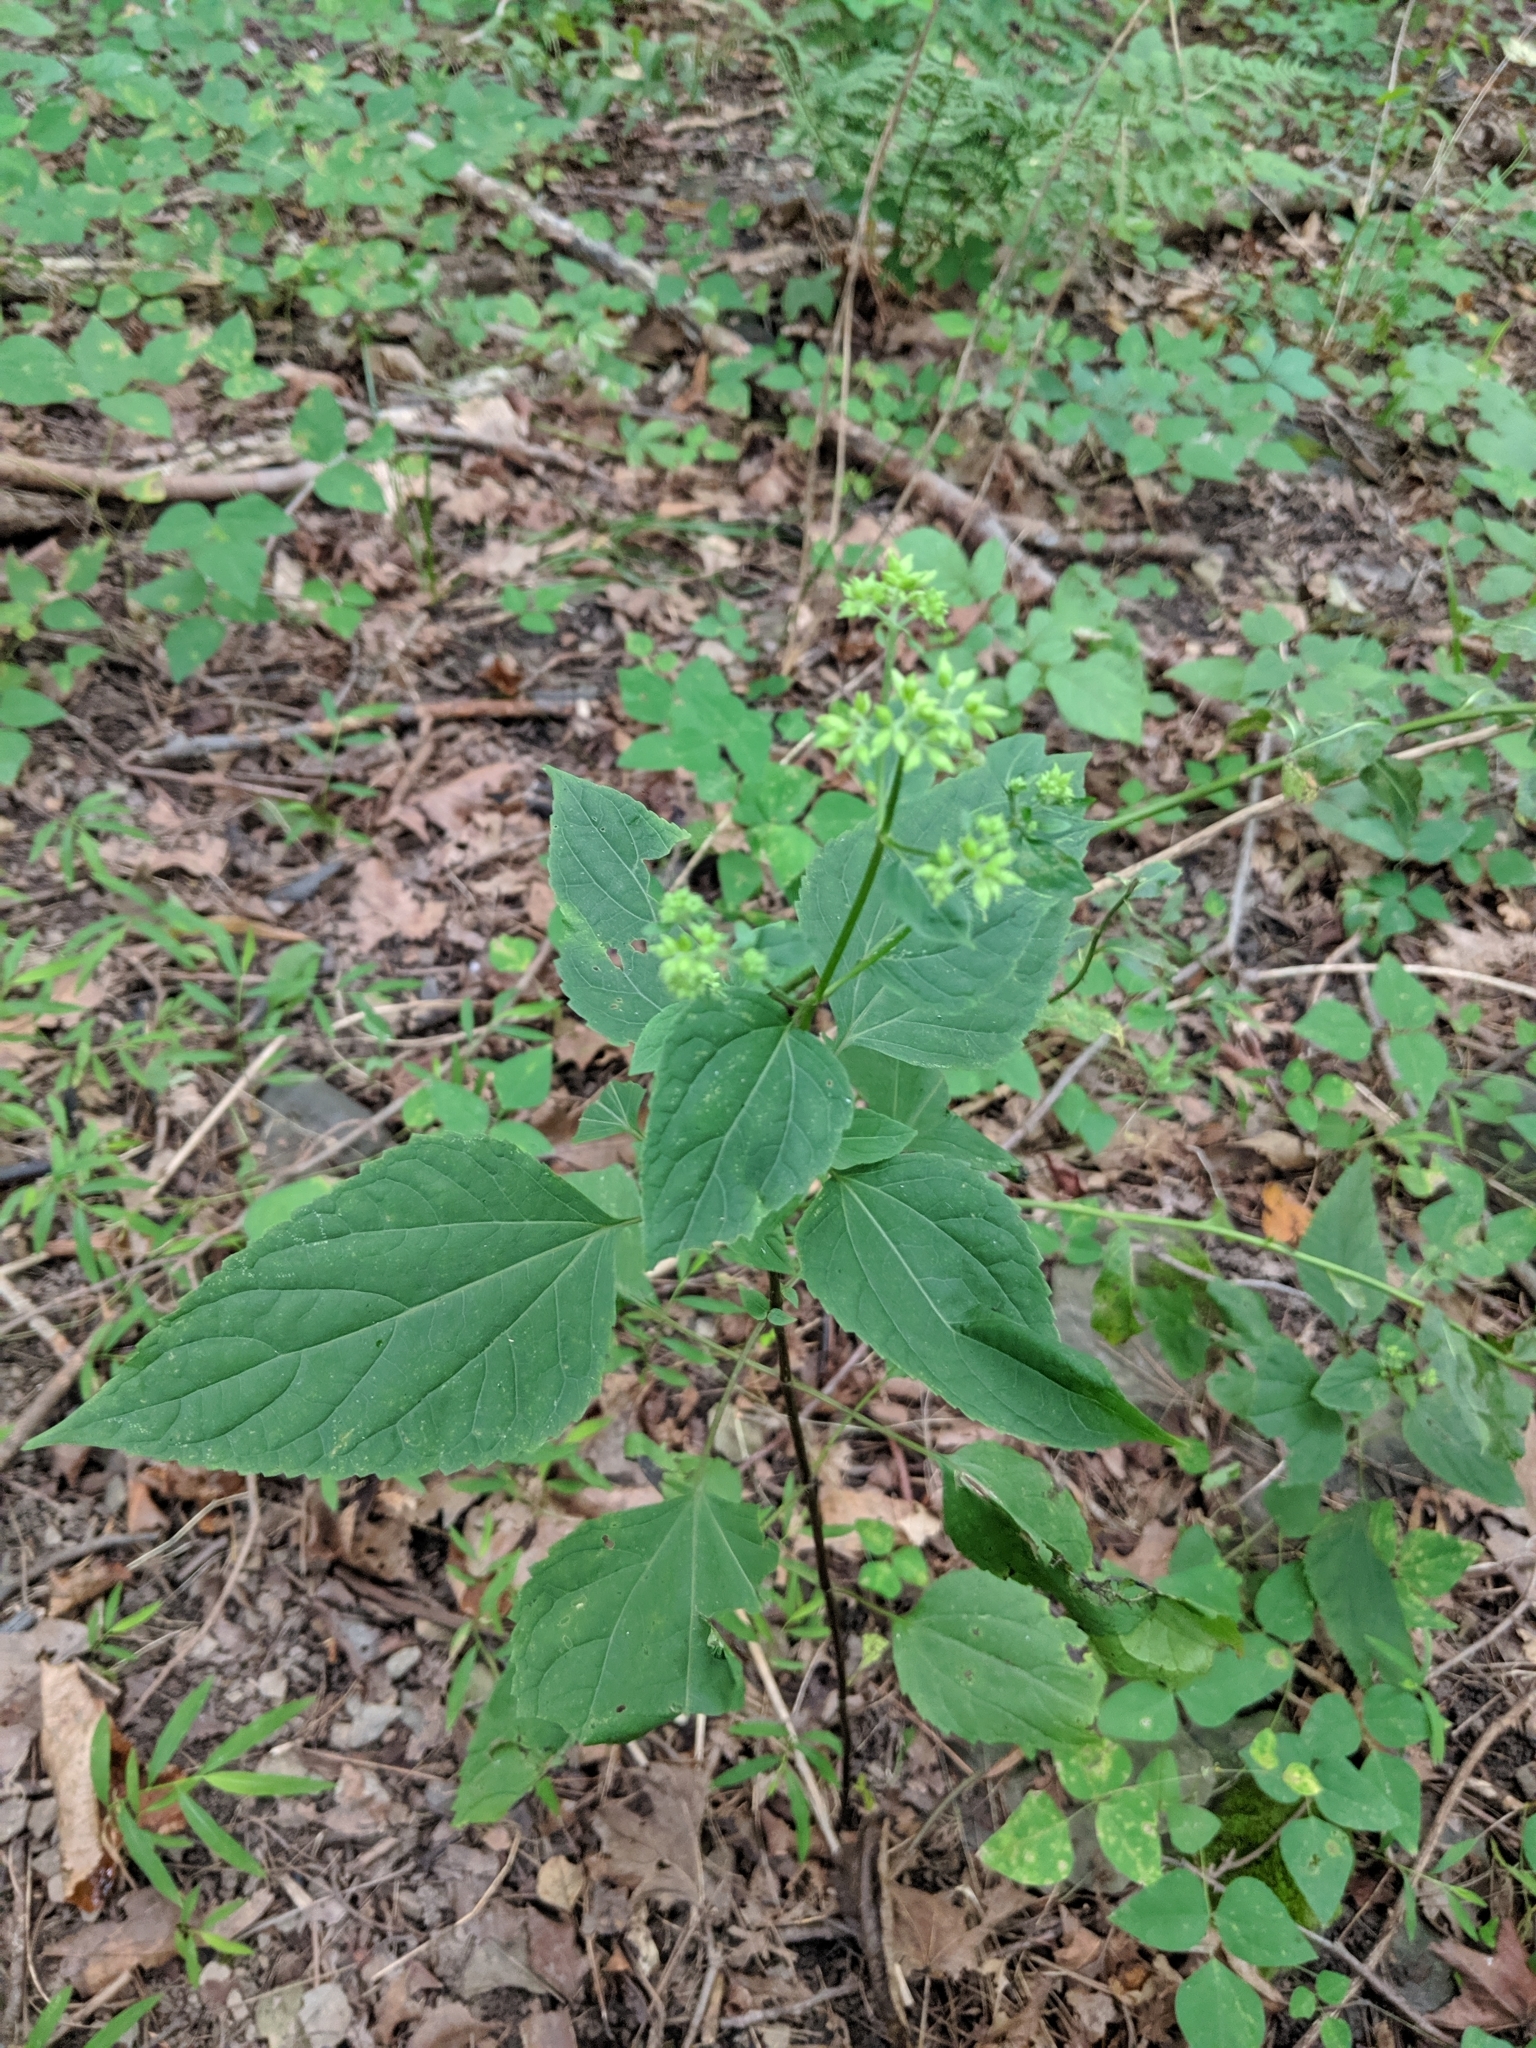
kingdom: Plantae
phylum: Tracheophyta
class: Magnoliopsida
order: Asterales
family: Asteraceae
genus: Ageratina
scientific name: Ageratina altissima
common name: White snakeroot
